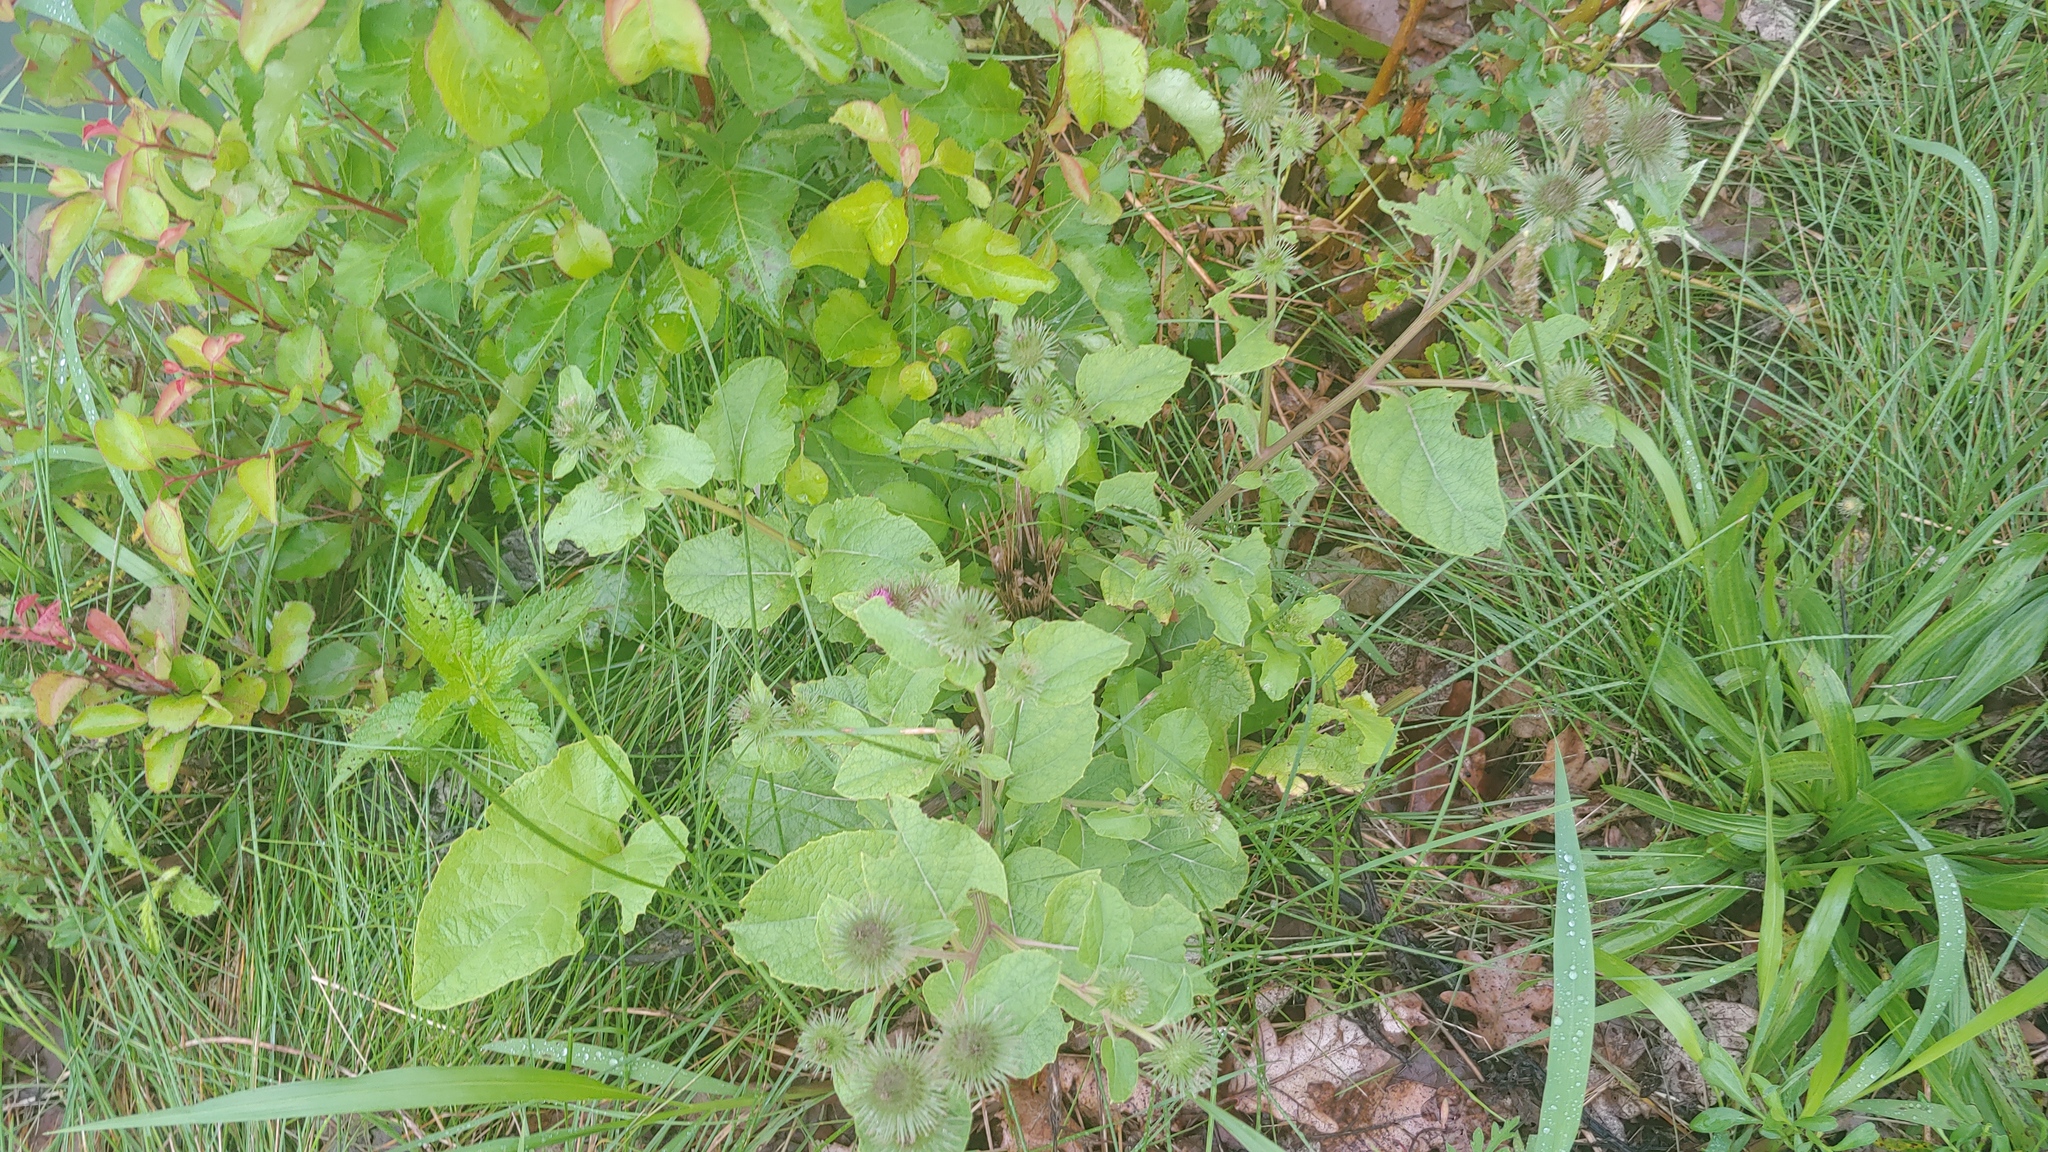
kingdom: Plantae
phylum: Tracheophyta
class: Magnoliopsida
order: Asterales
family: Asteraceae
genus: Arctium
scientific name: Arctium lappa
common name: Greater burdock
